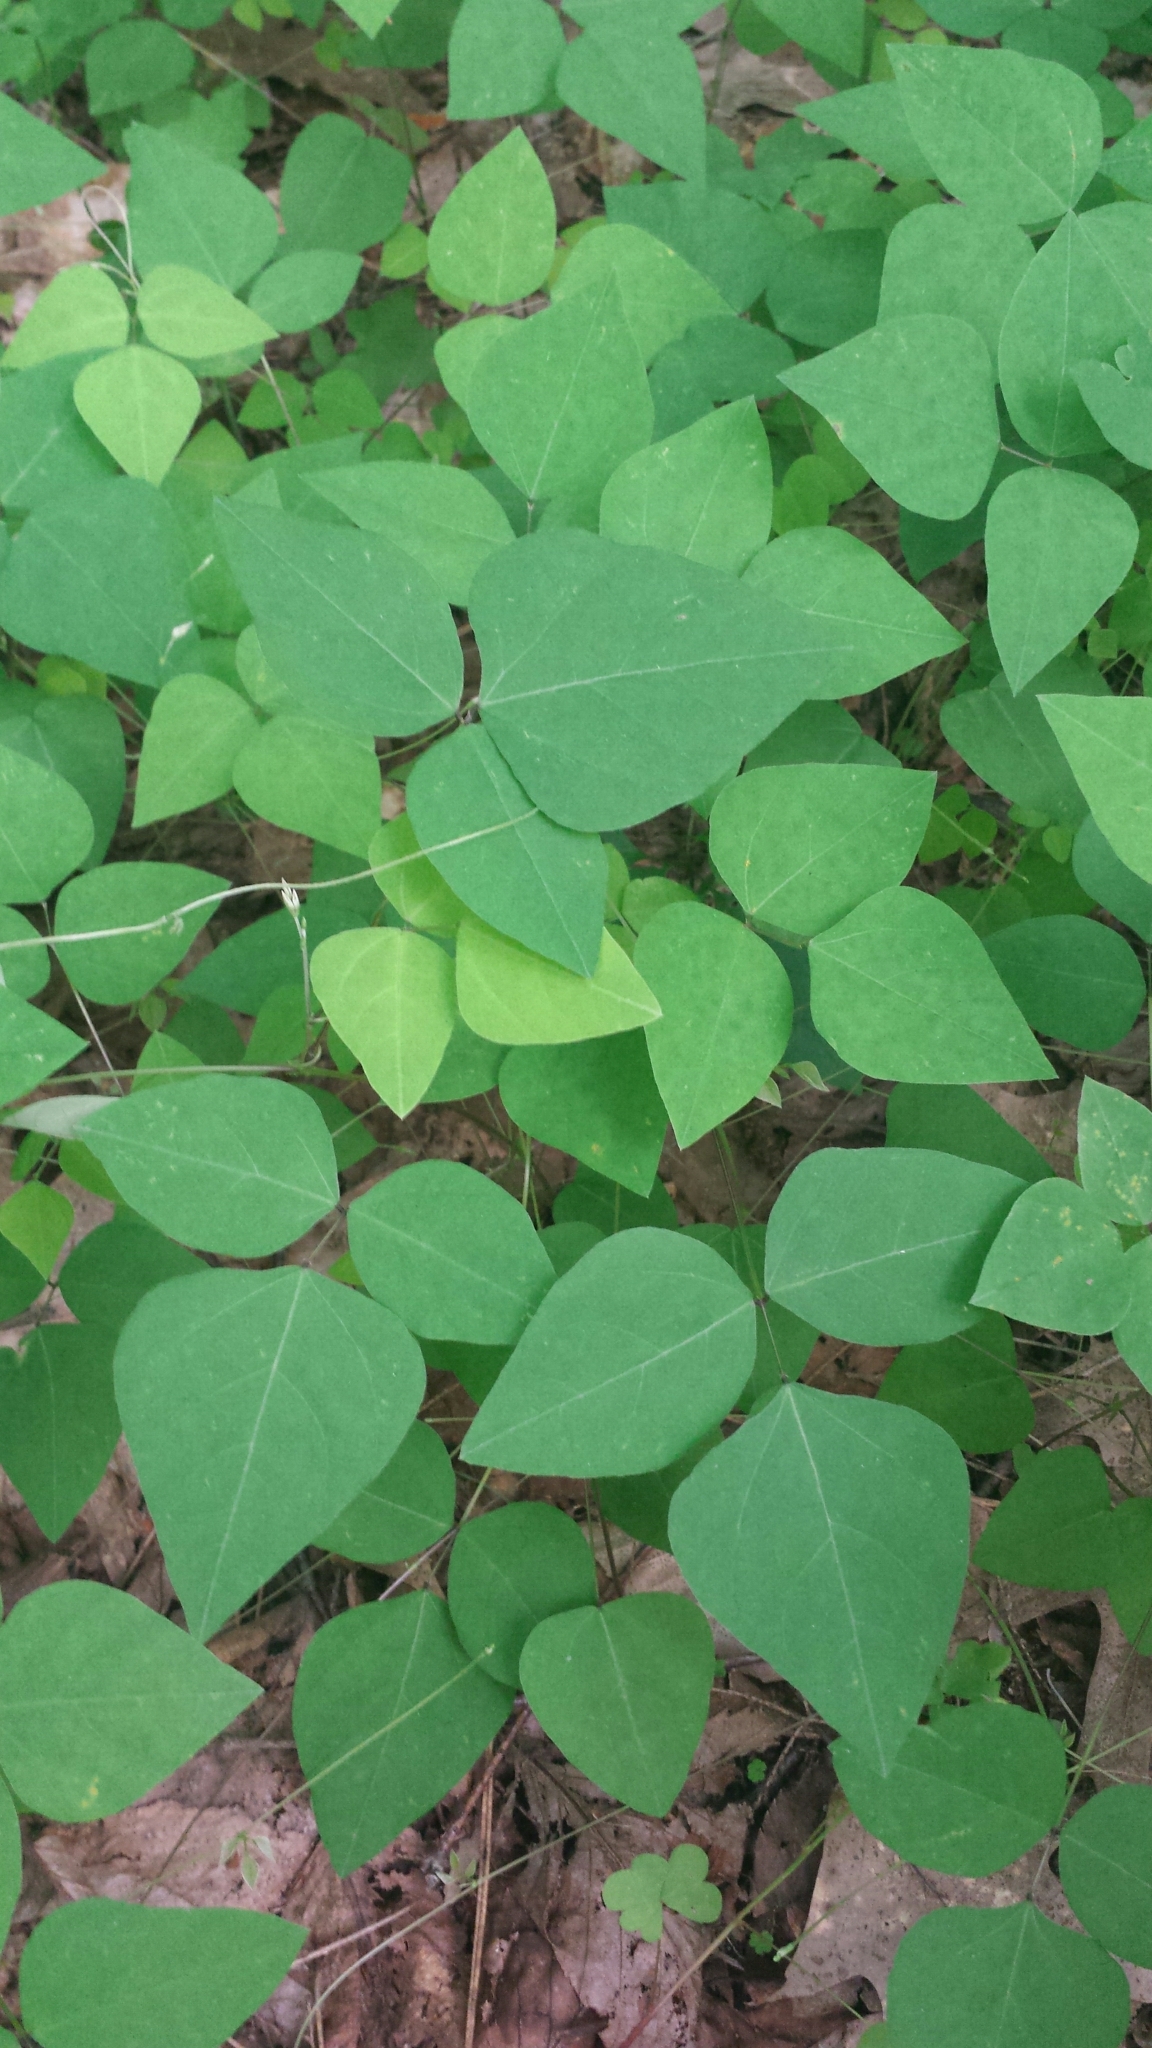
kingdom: Plantae
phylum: Tracheophyta
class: Magnoliopsida
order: Fabales
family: Fabaceae
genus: Amphicarpaea
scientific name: Amphicarpaea bracteata
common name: American hog peanut
